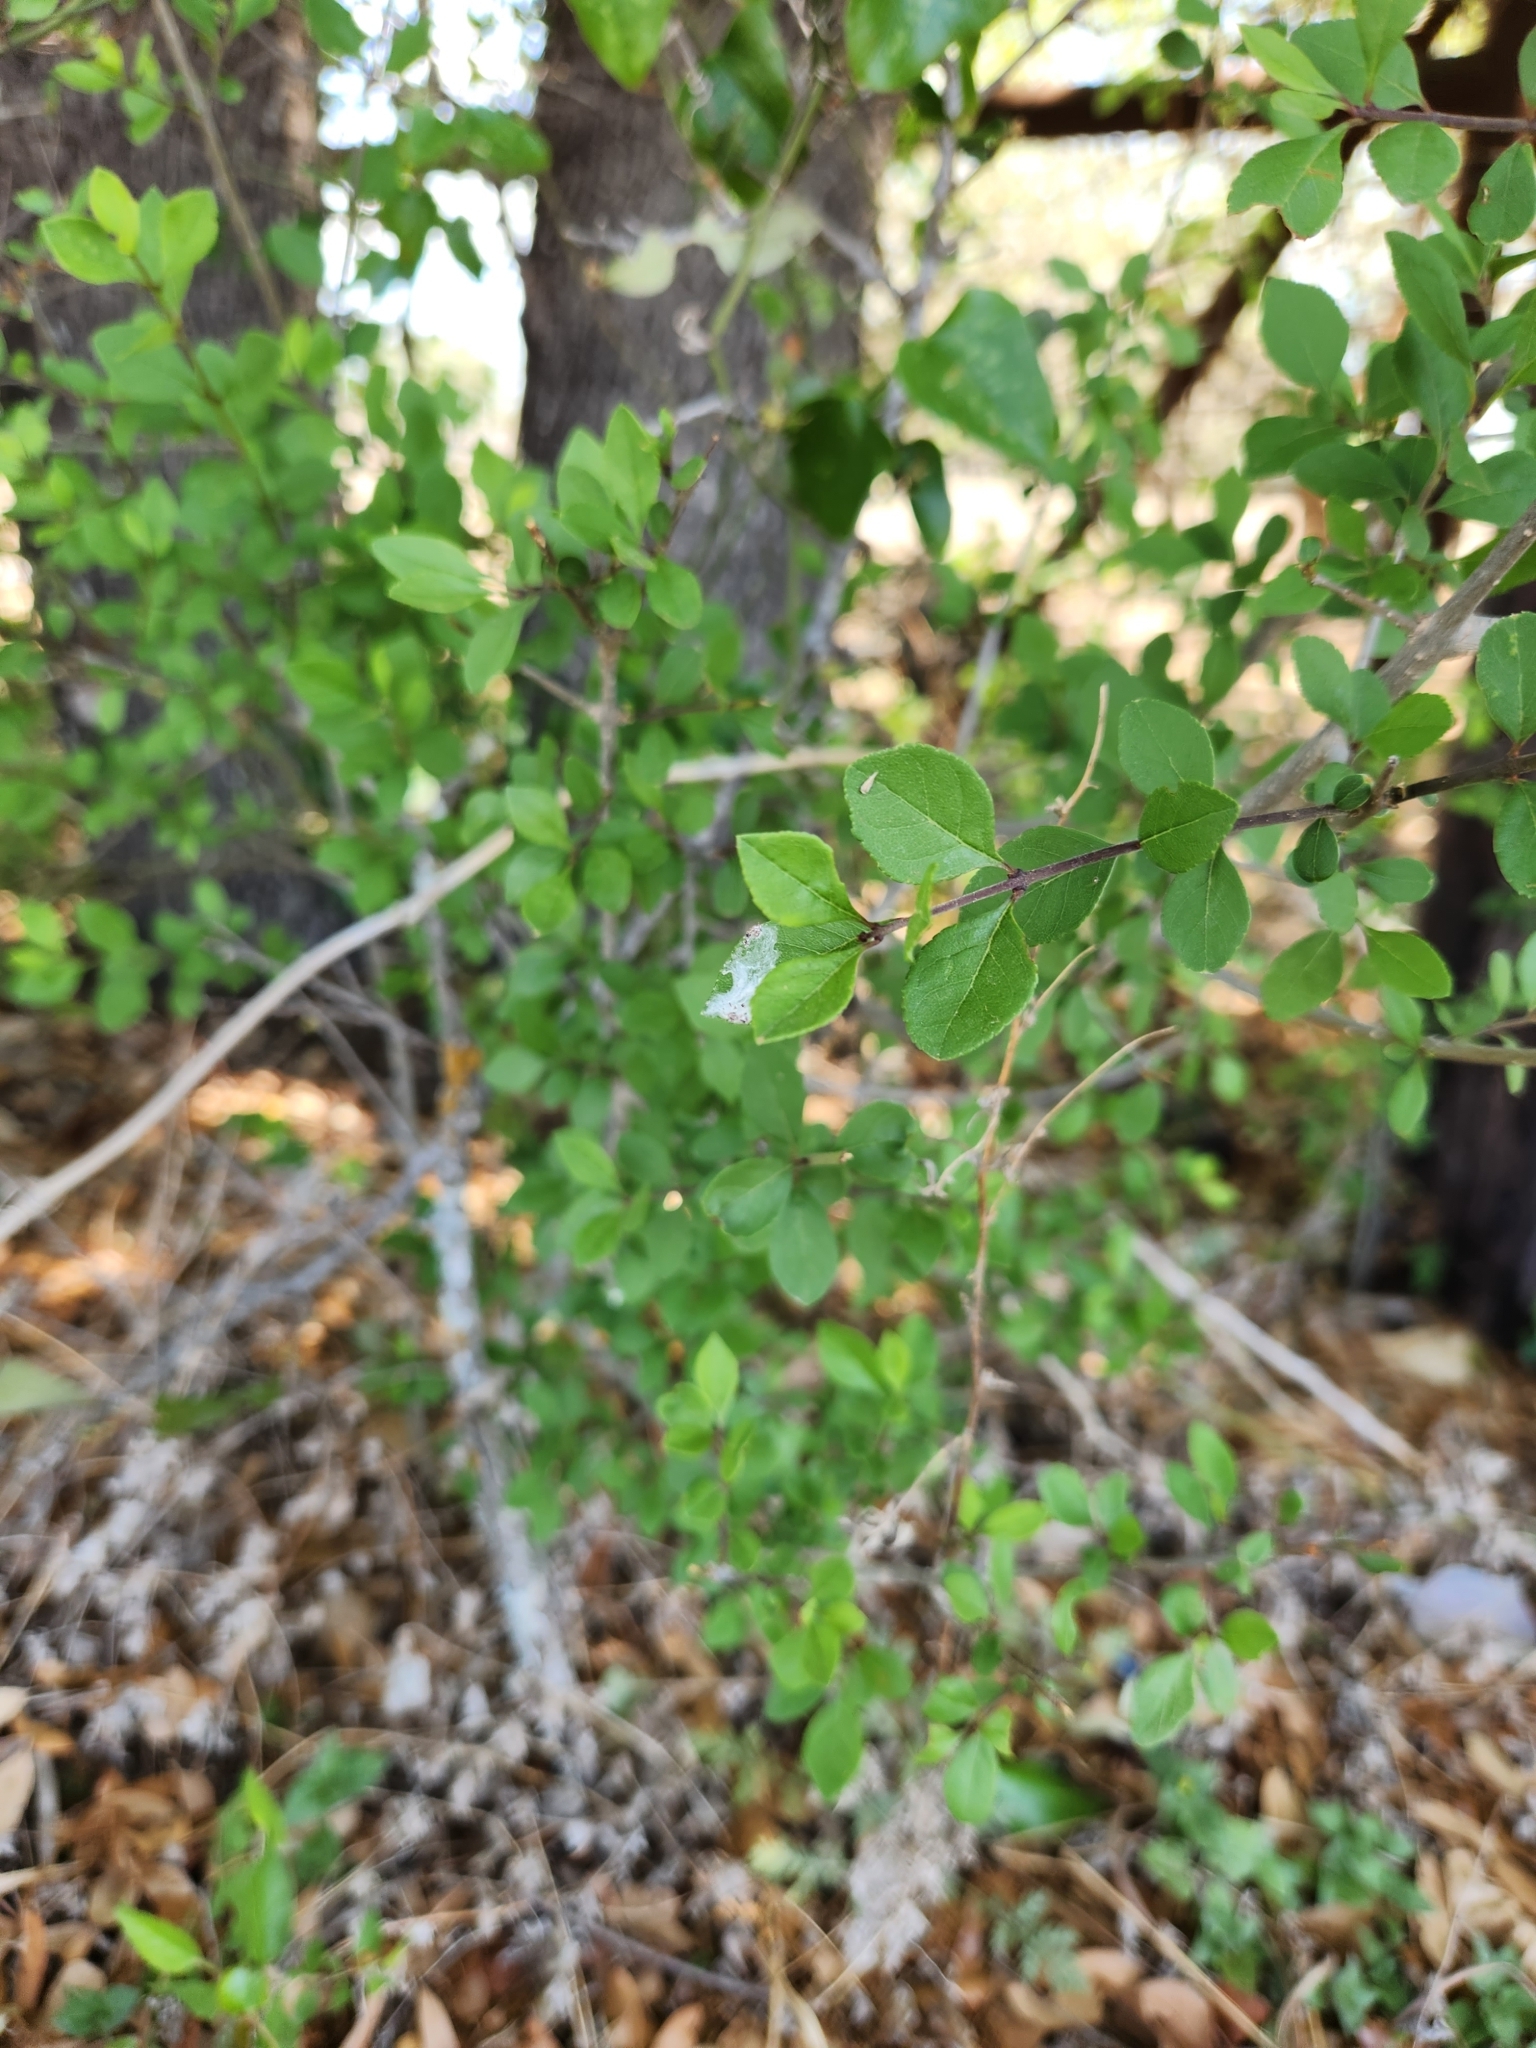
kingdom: Plantae
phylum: Tracheophyta
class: Magnoliopsida
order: Lamiales
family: Oleaceae
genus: Forestiera
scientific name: Forestiera pubescens
